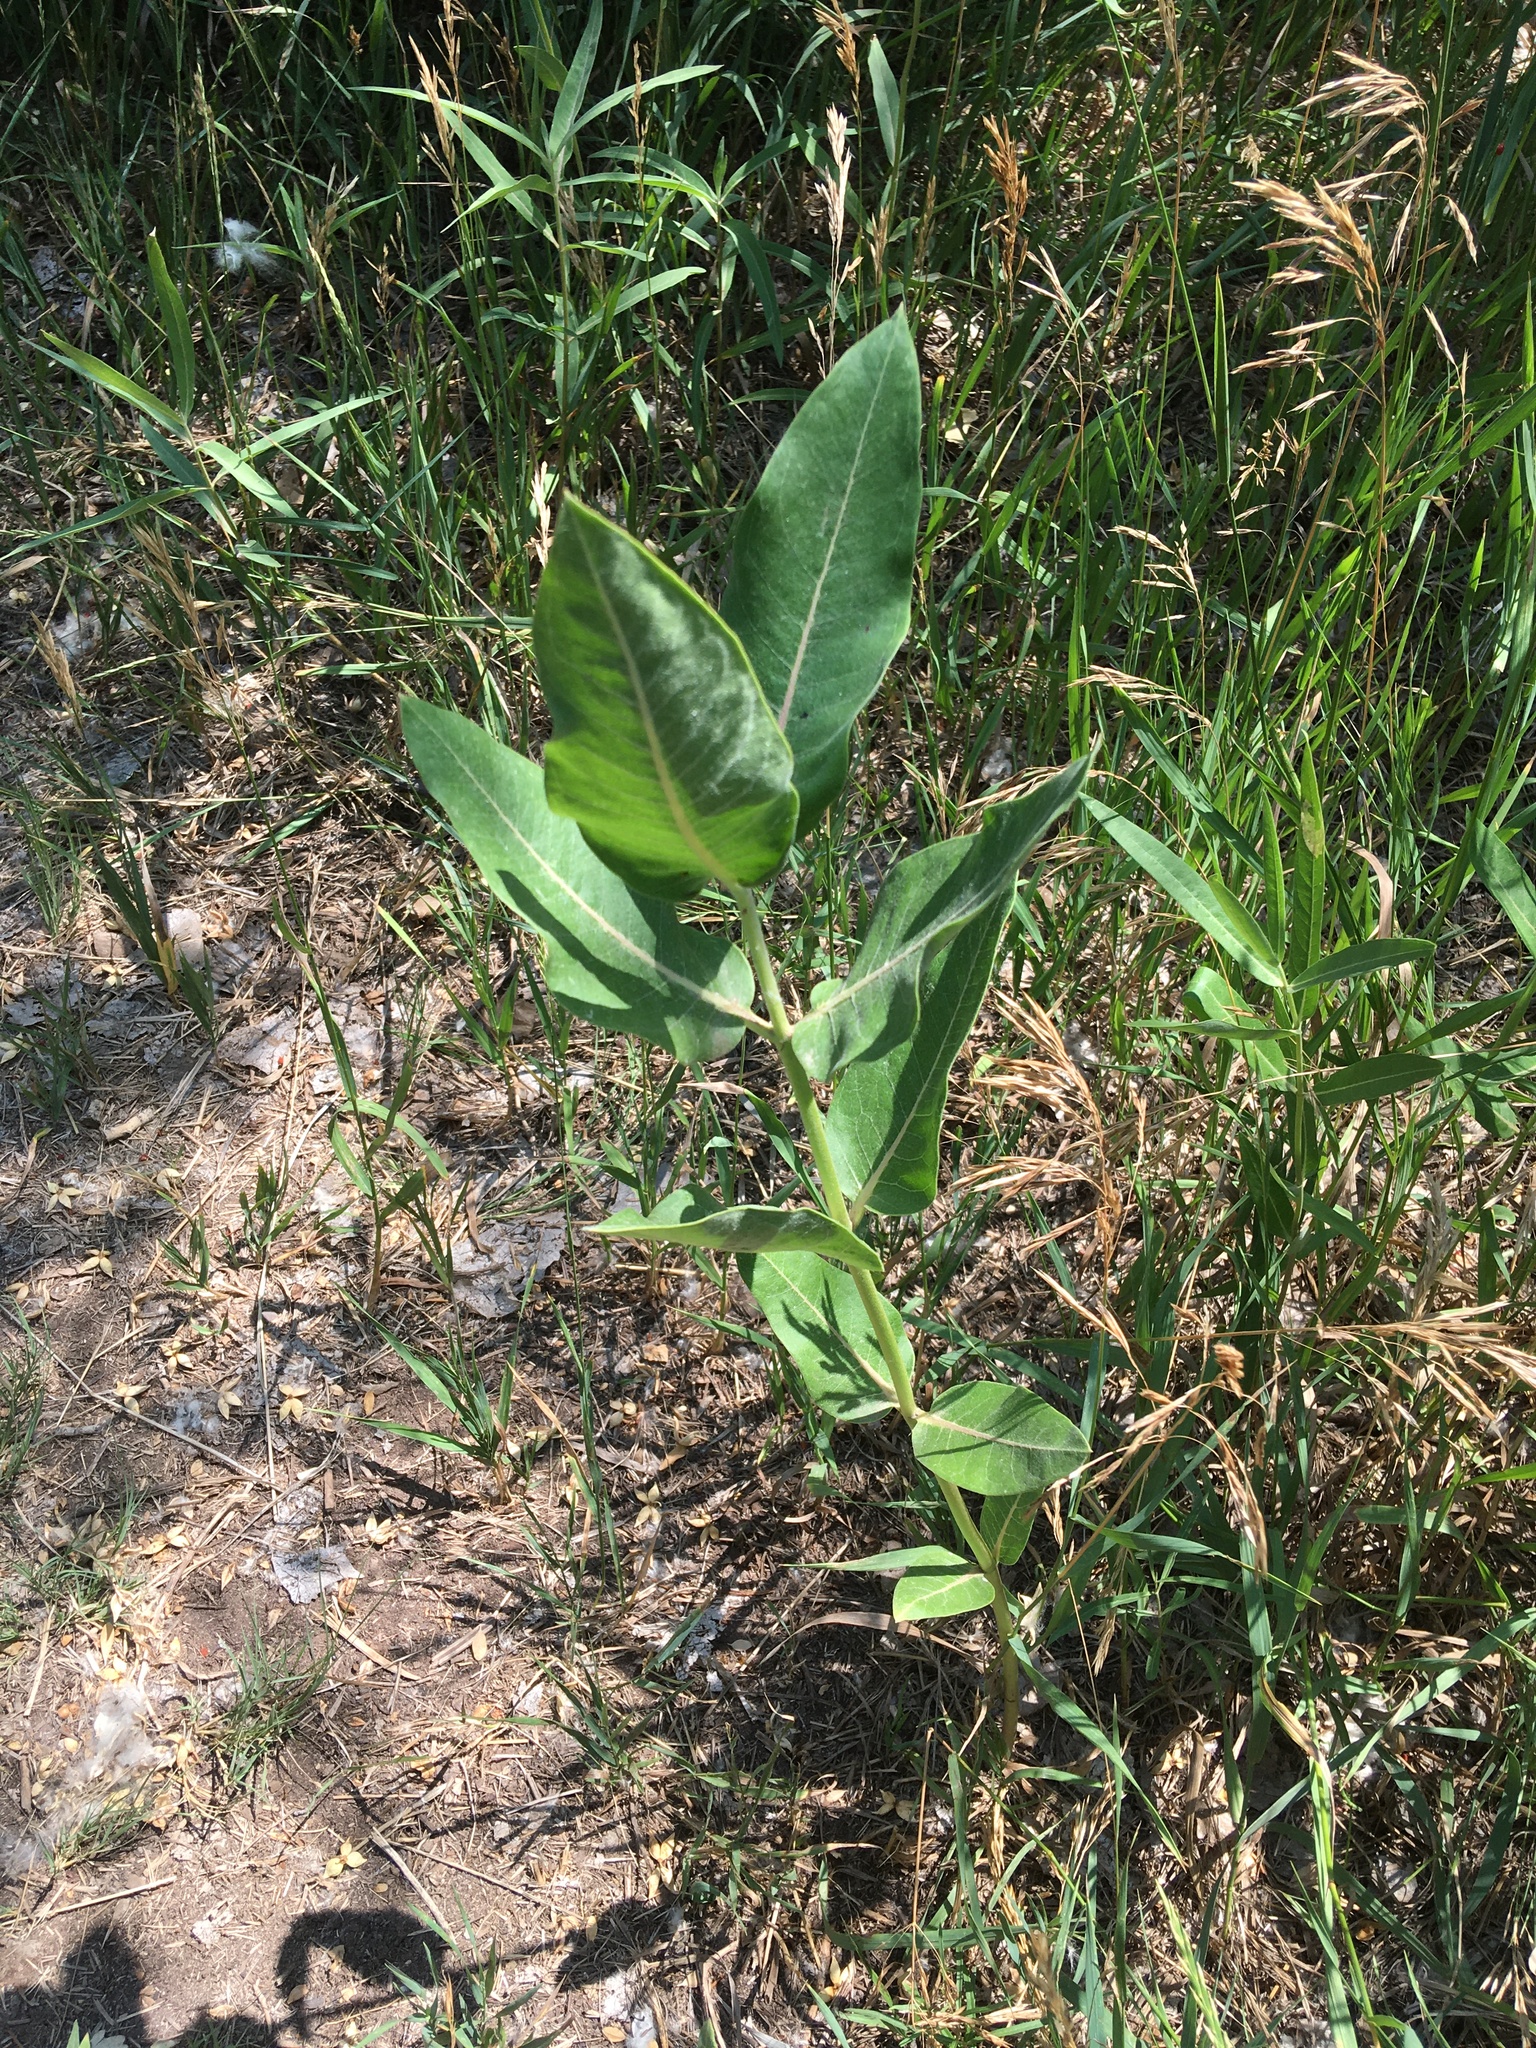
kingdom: Plantae
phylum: Tracheophyta
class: Magnoliopsida
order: Gentianales
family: Apocynaceae
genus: Asclepias
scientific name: Asclepias speciosa
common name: Showy milkweed
